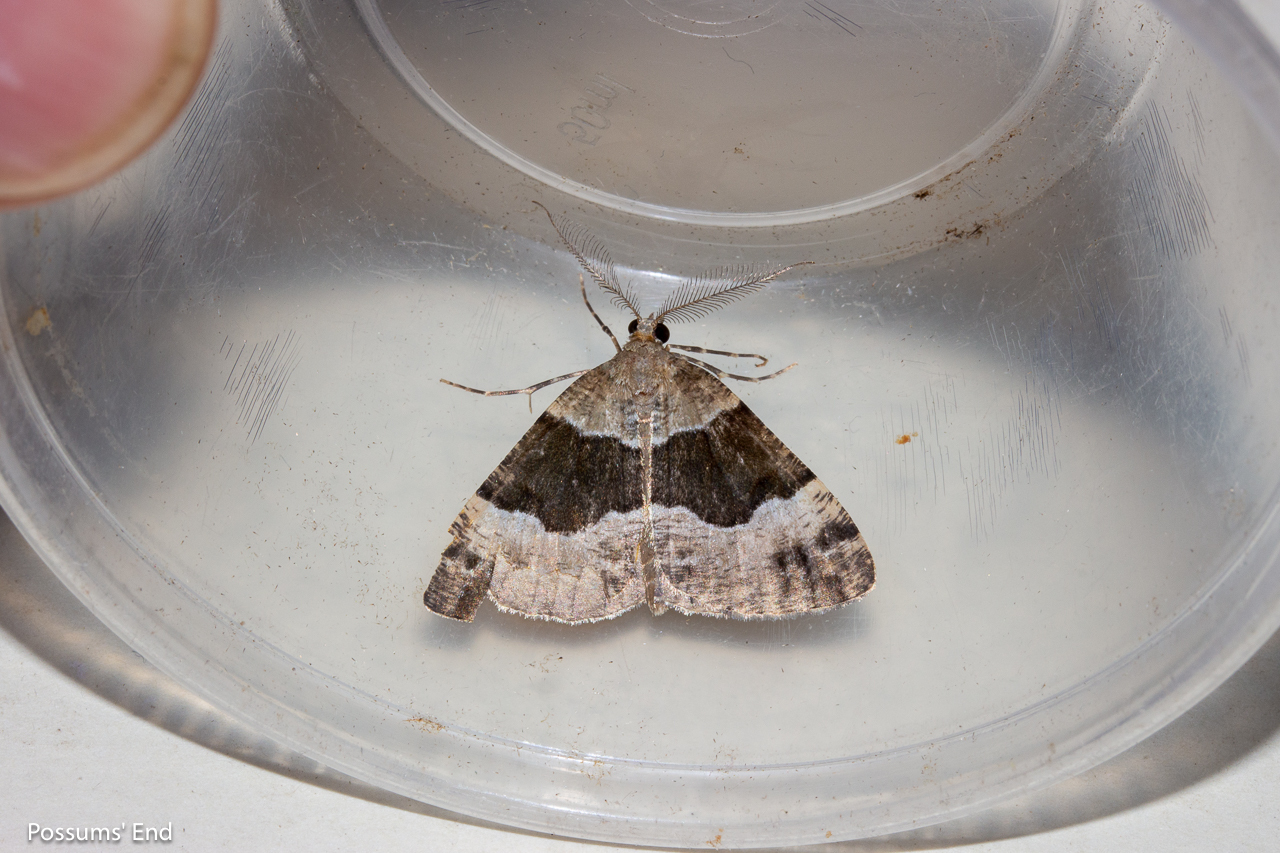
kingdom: Animalia
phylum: Arthropoda
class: Insecta
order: Lepidoptera
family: Geometridae
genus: Pseudocoremia
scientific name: Pseudocoremia
